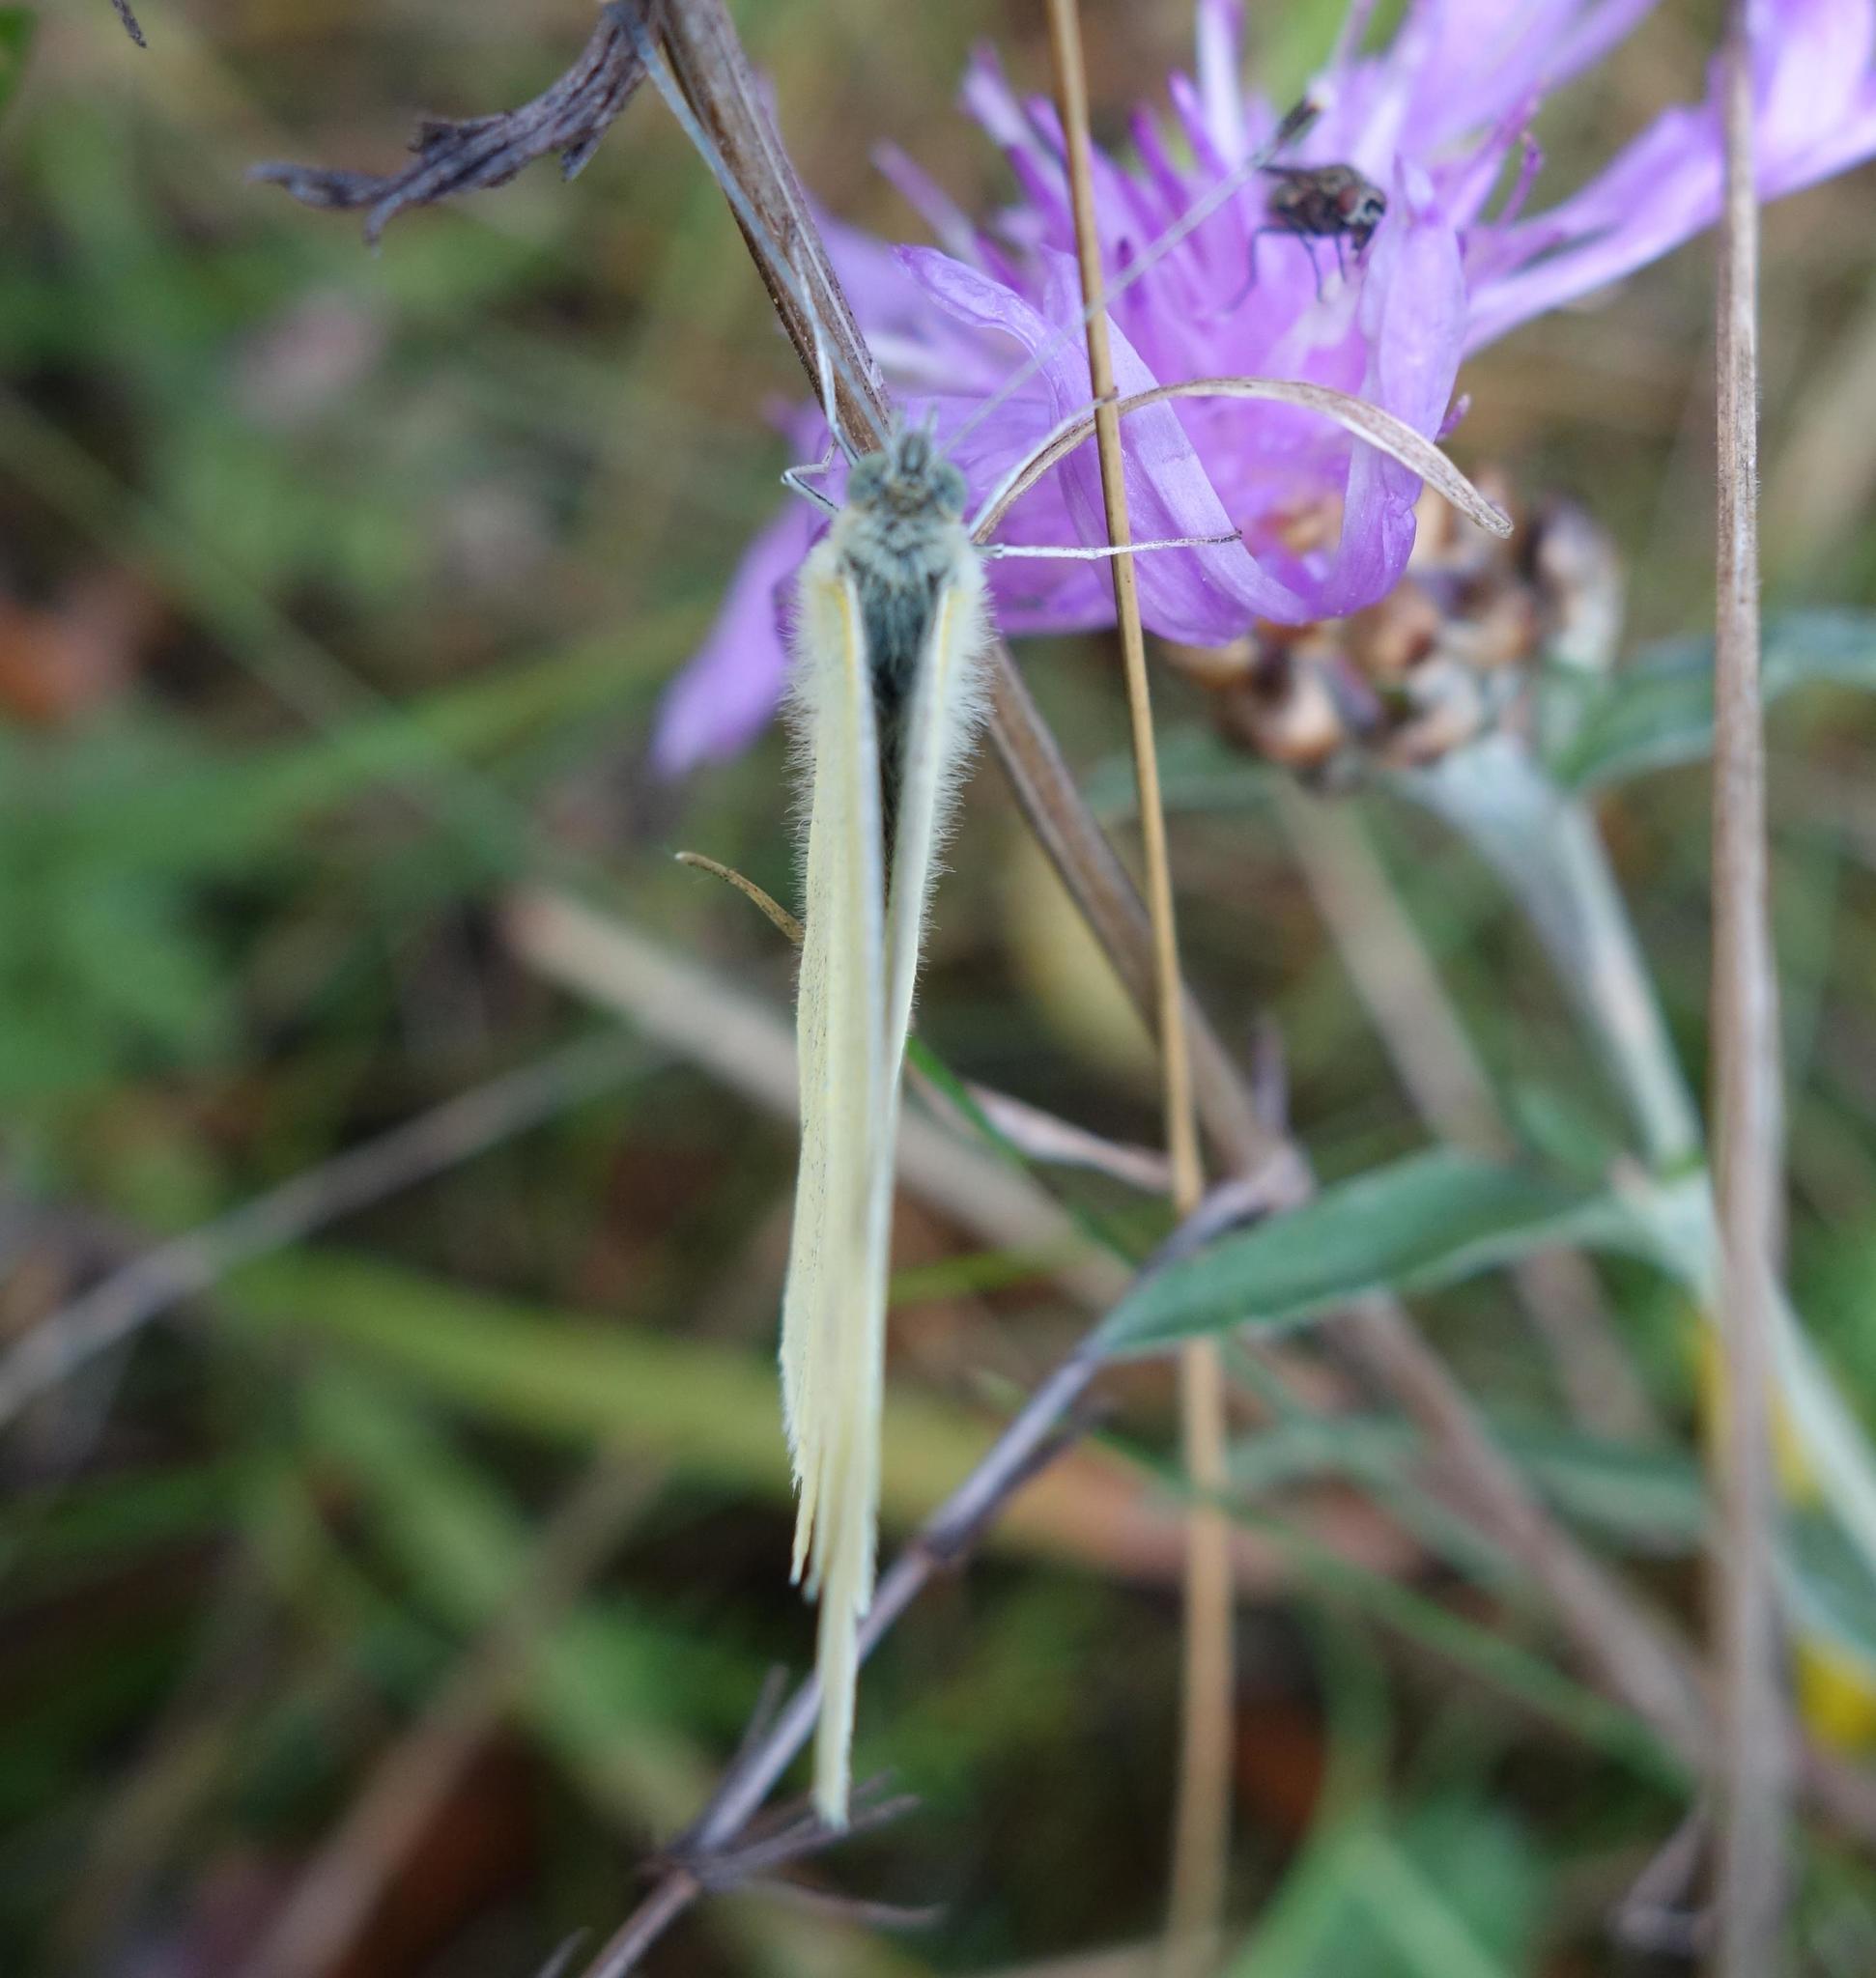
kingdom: Animalia
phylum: Arthropoda
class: Insecta
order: Lepidoptera
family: Pieridae
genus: Pieris
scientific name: Pieris rapae
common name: Small white
